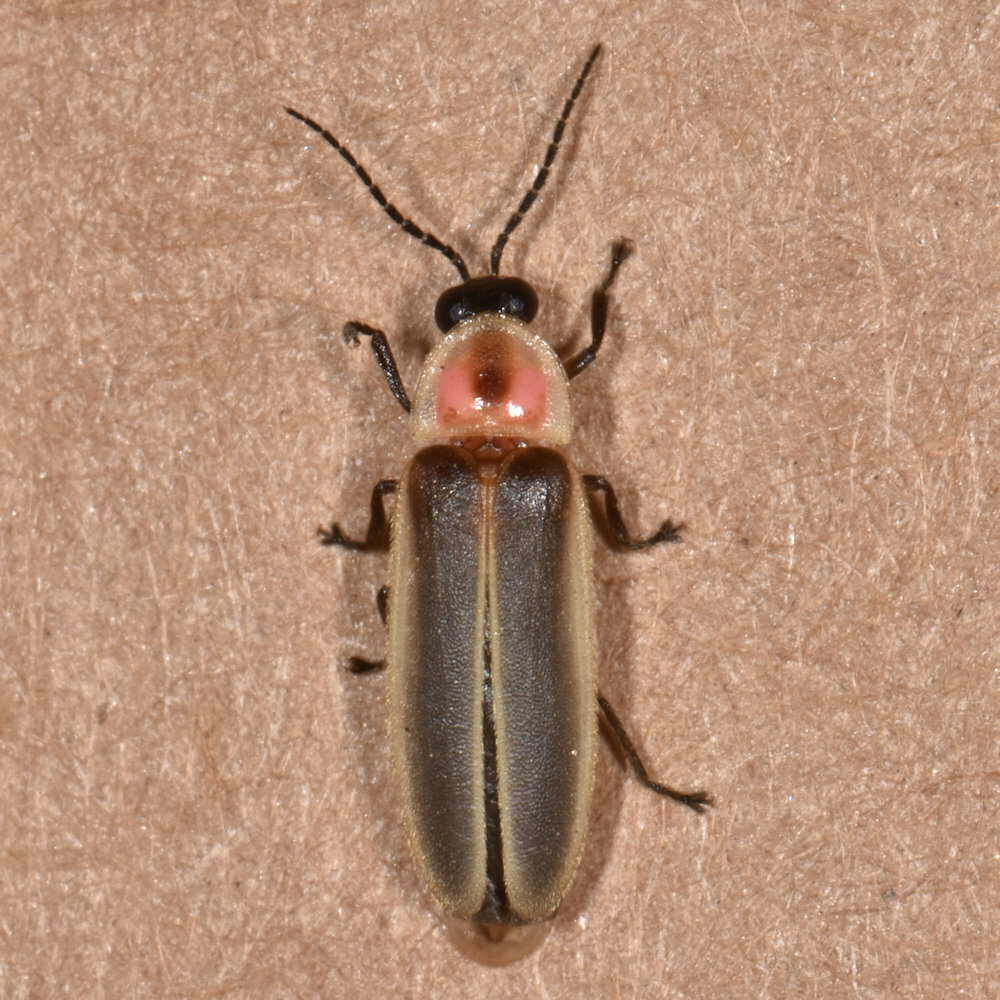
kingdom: Animalia
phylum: Arthropoda
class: Insecta
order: Coleoptera
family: Lampyridae
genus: Photinus
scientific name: Photinus pyralis
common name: Big dipper firefly
